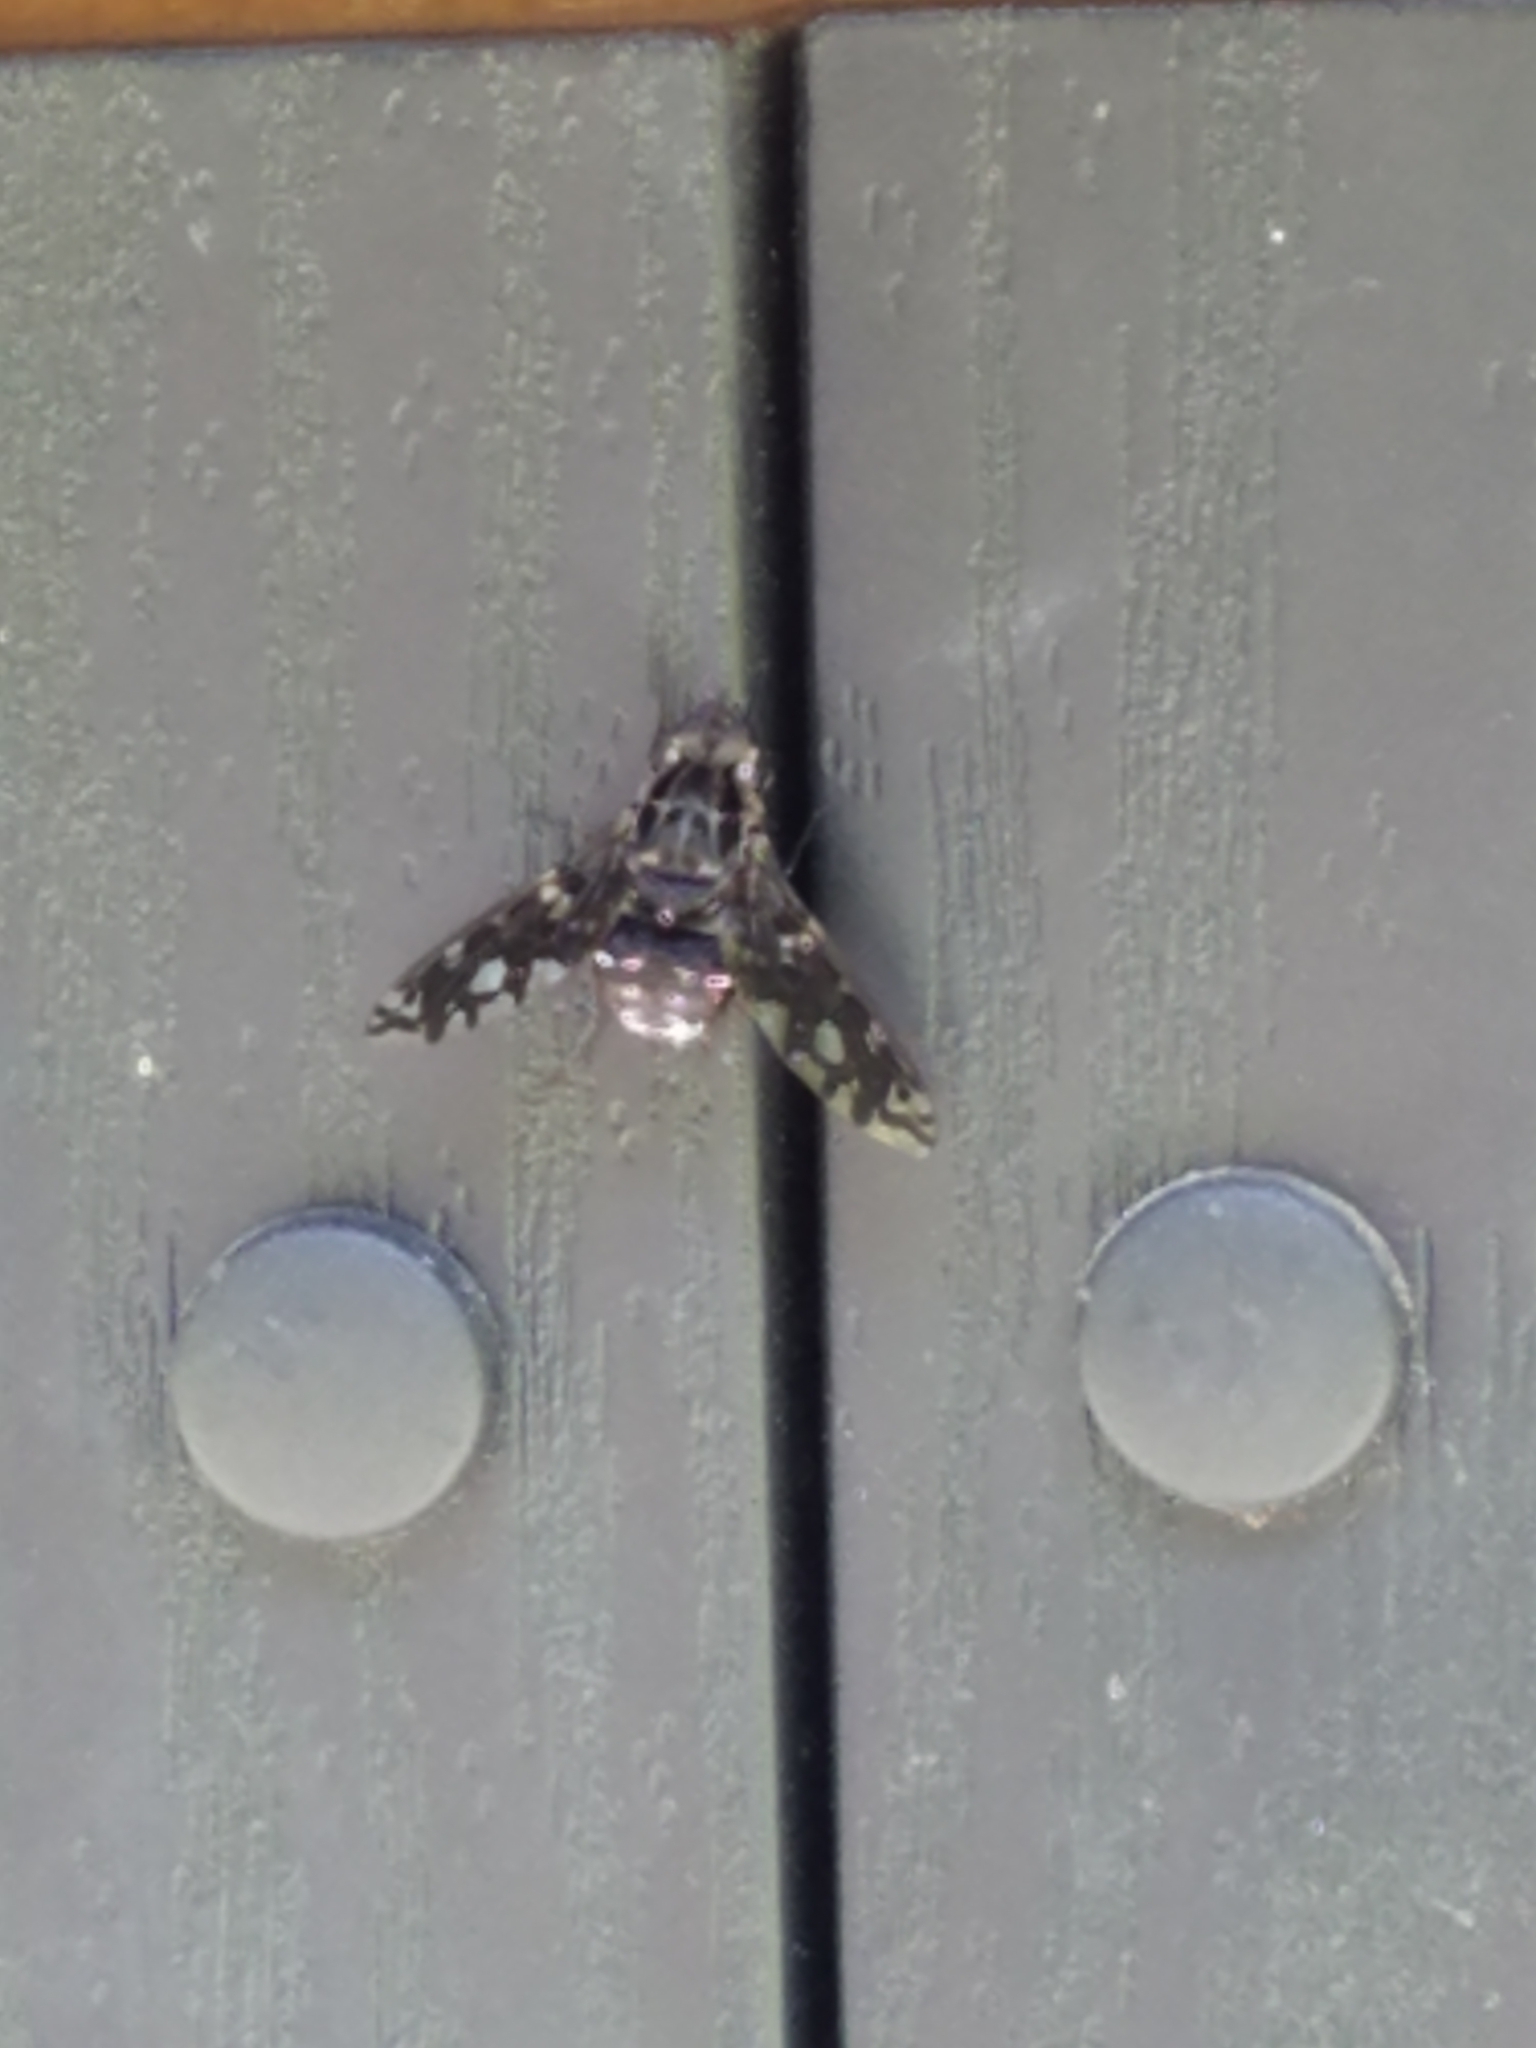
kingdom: Animalia
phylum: Arthropoda
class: Insecta
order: Diptera
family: Bombyliidae
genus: Xenox
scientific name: Xenox tigrinus
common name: Tiger bee fly
